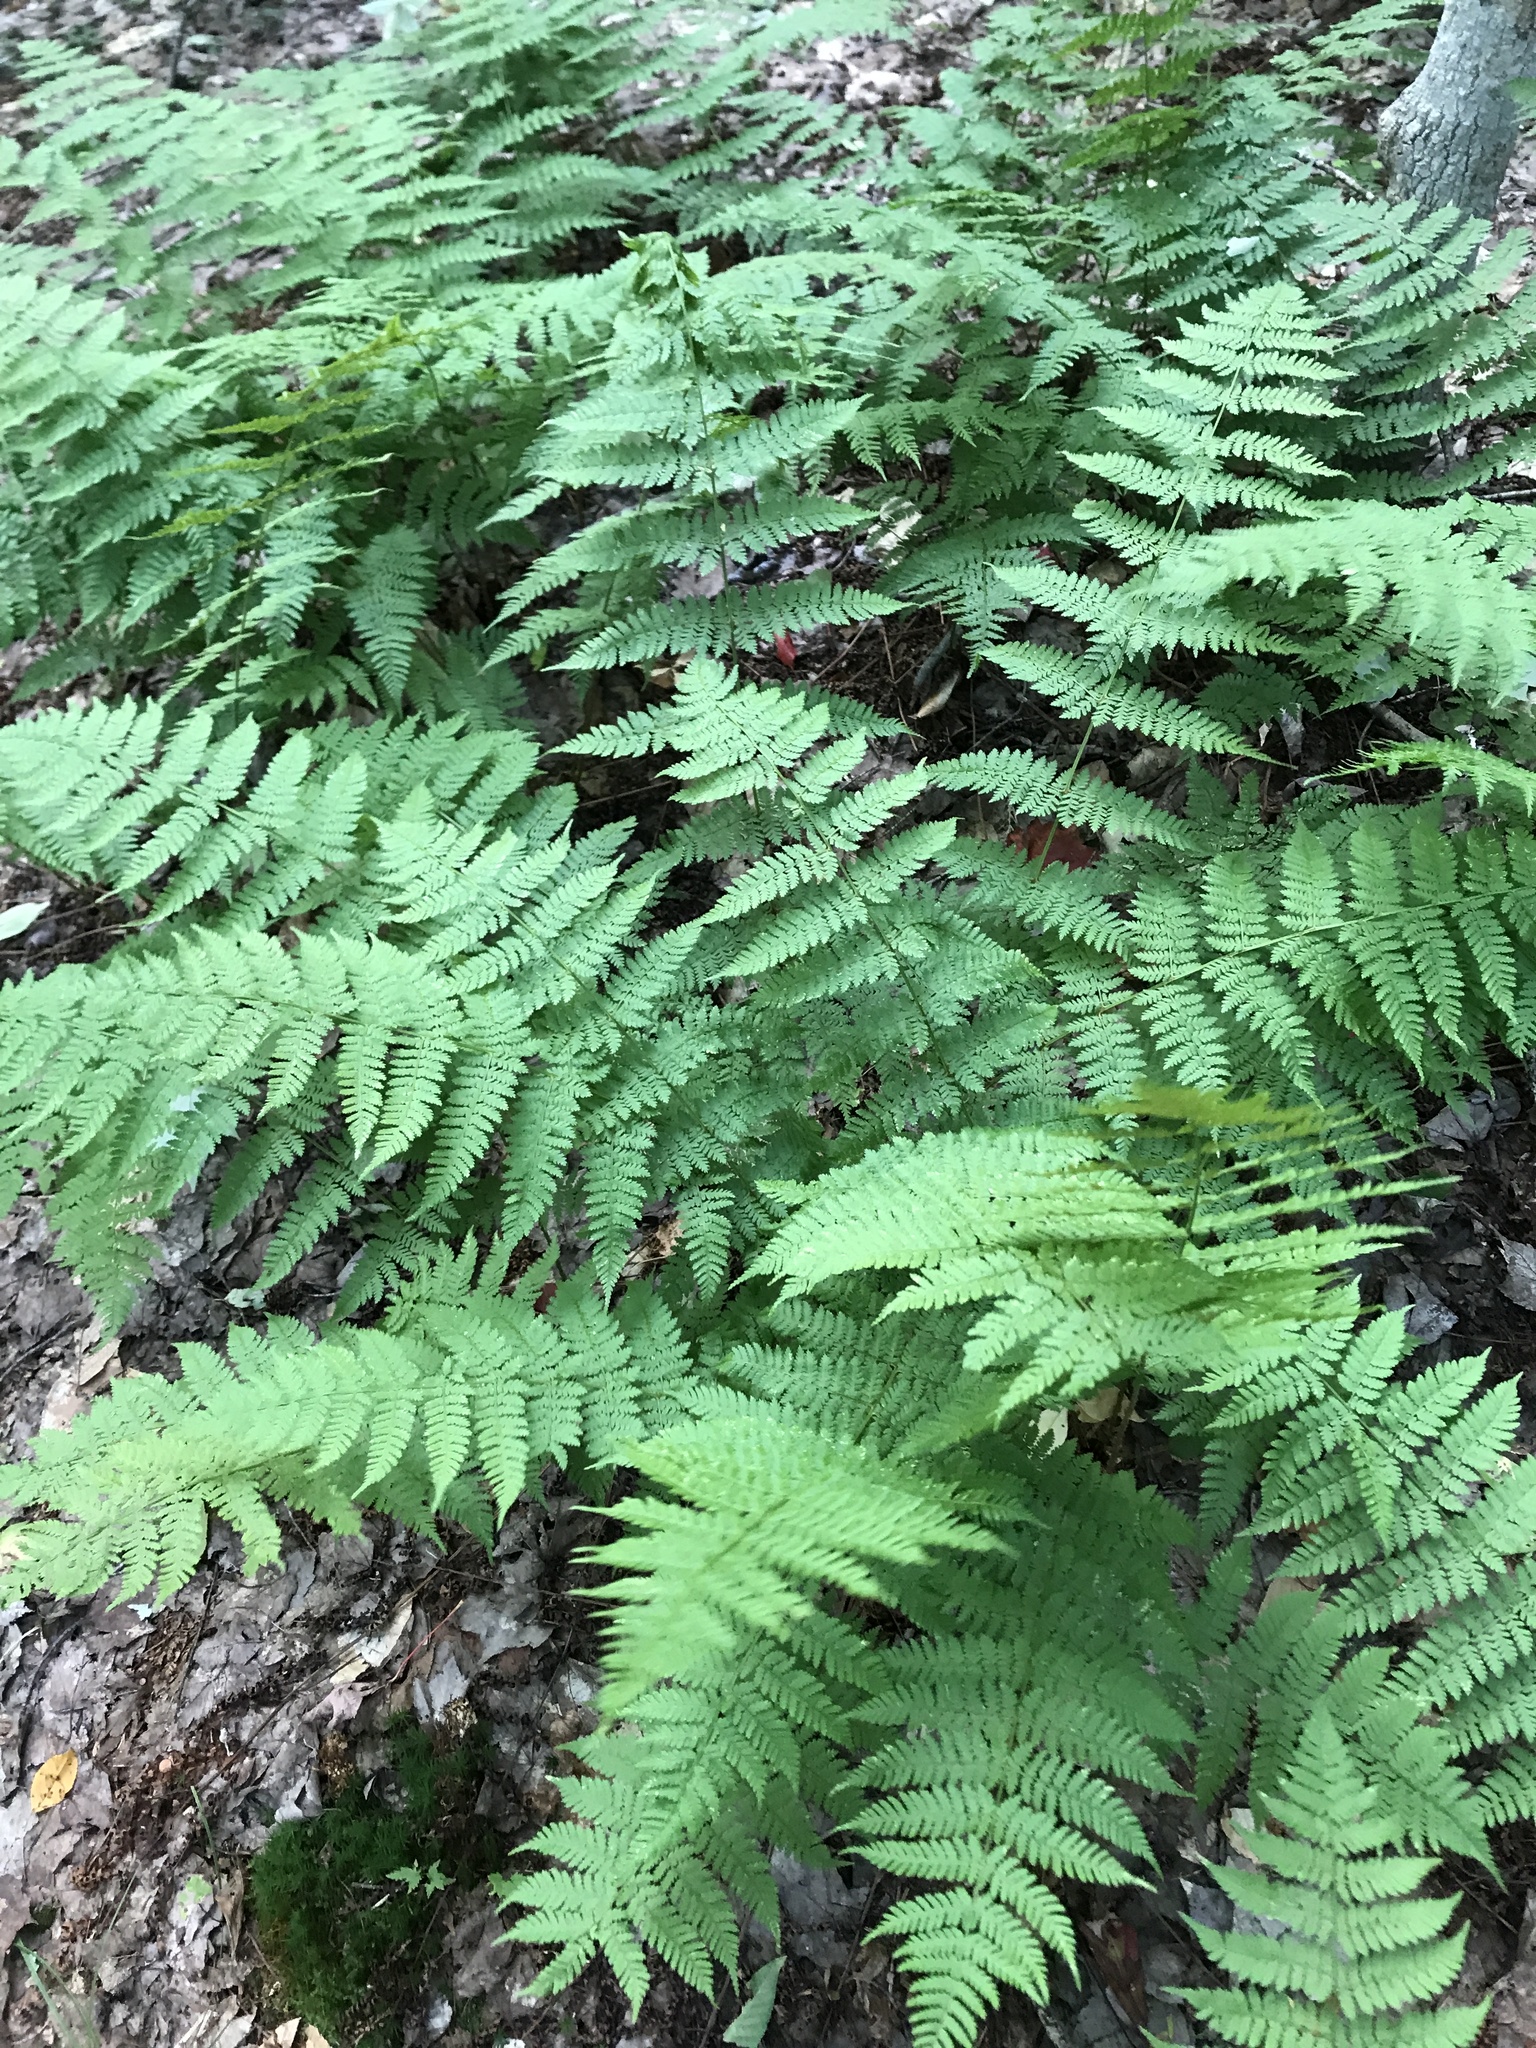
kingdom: Plantae
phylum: Tracheophyta
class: Polypodiopsida
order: Polypodiales
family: Dryopteridaceae
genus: Dryopteris
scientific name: Dryopteris intermedia
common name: Evergreen wood fern
